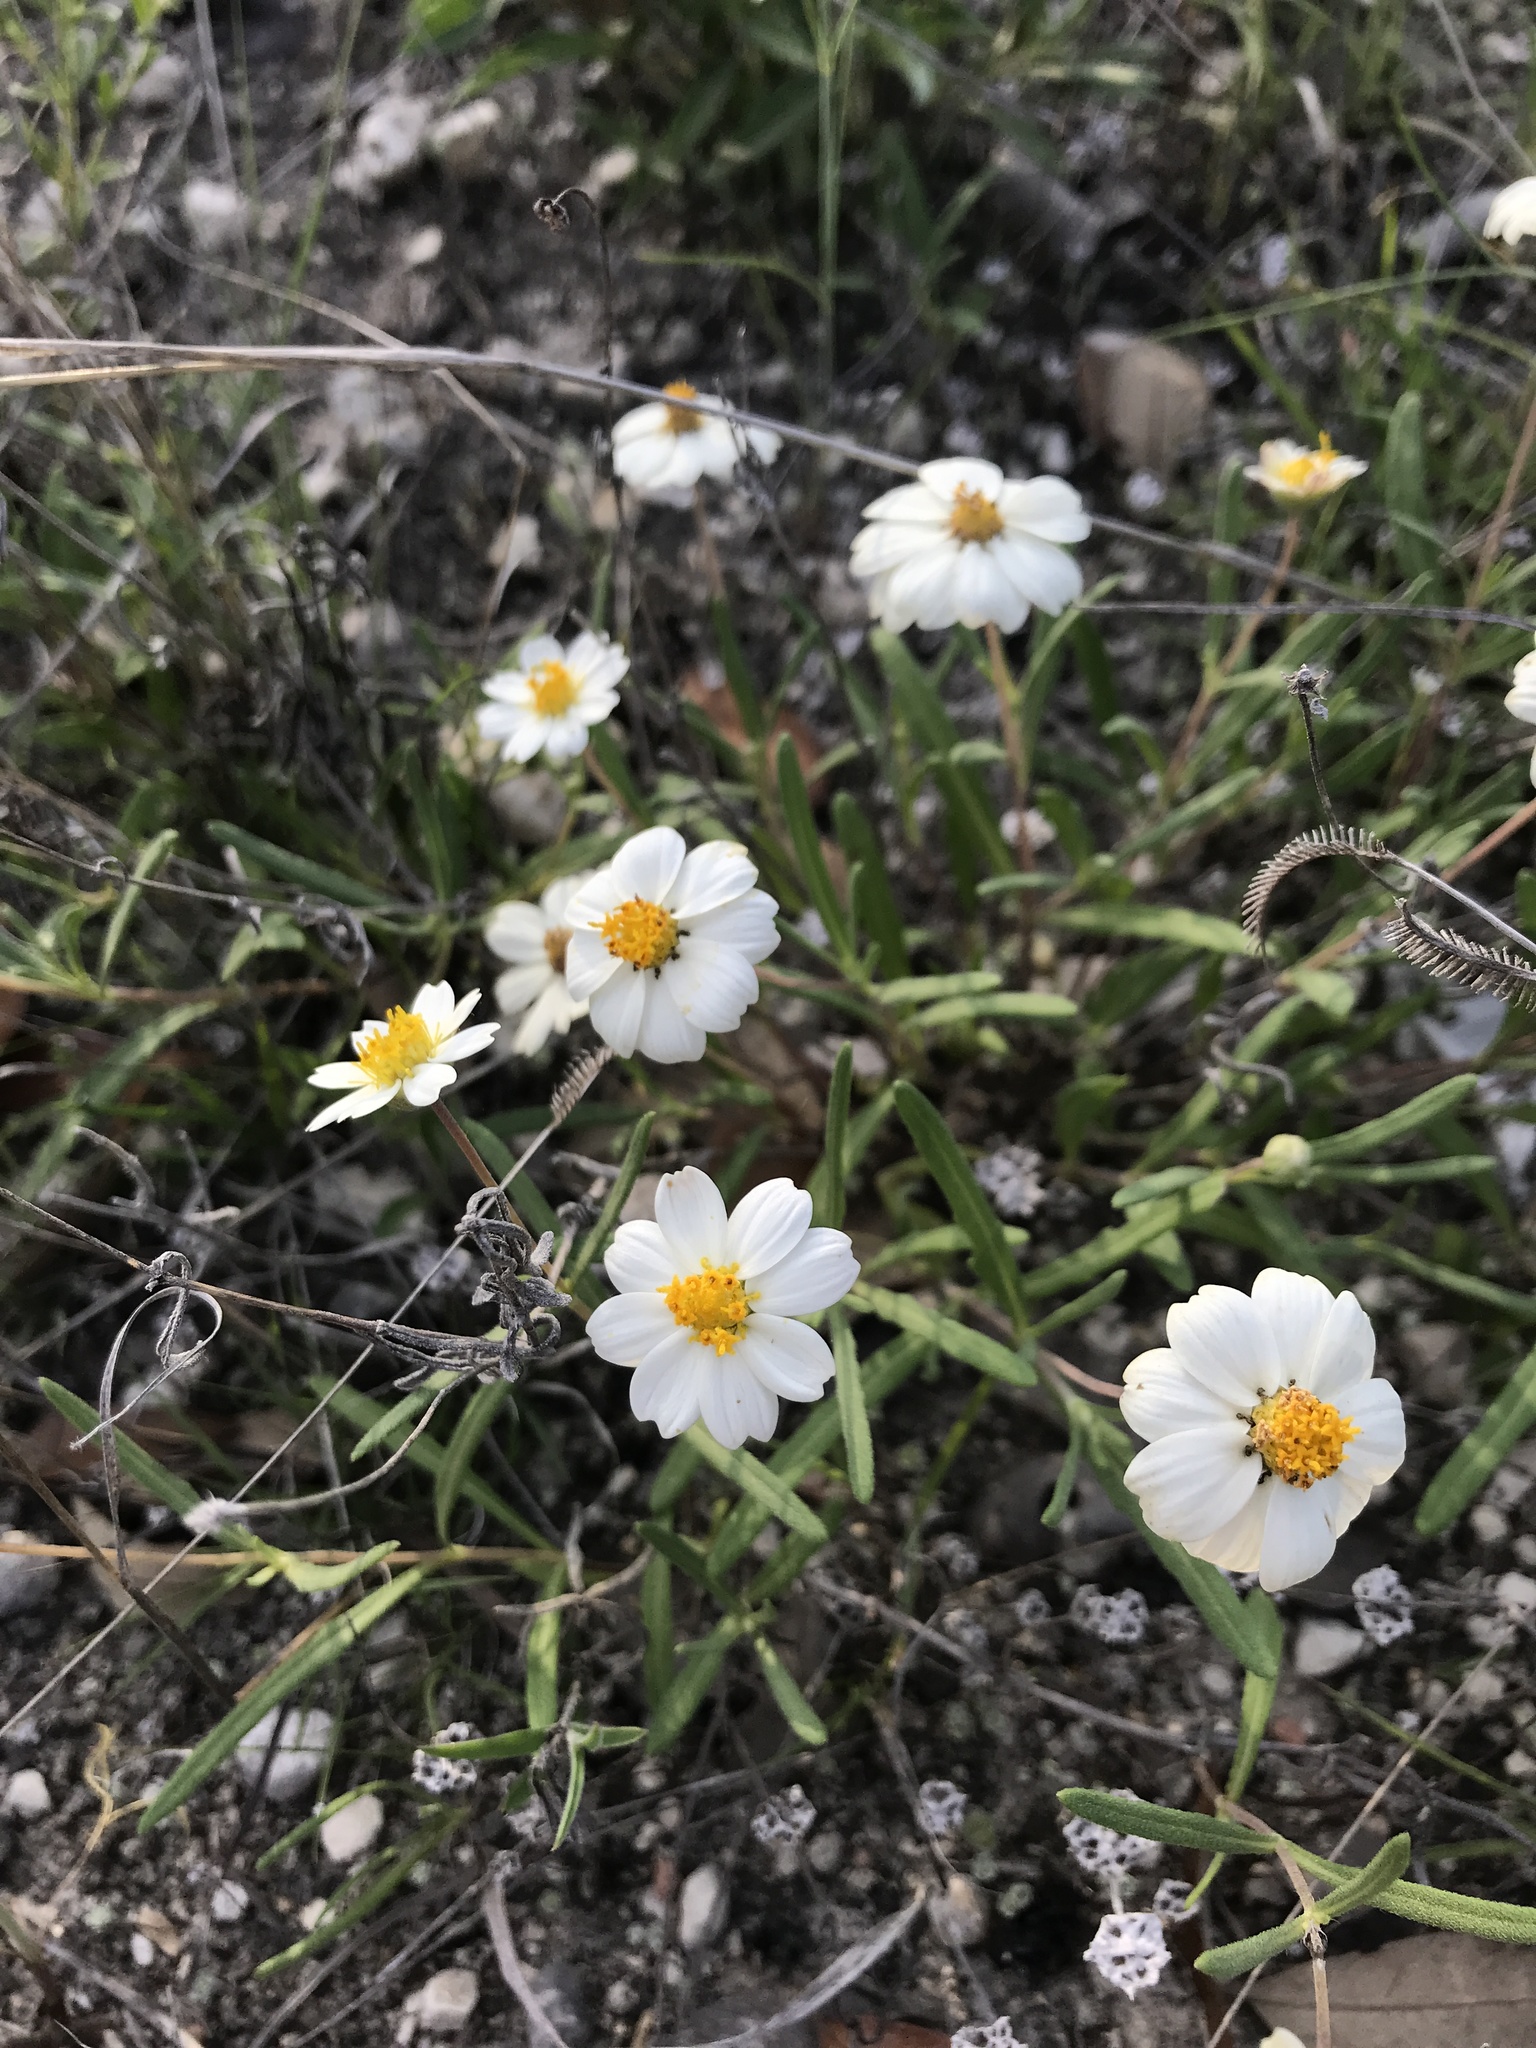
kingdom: Plantae
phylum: Tracheophyta
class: Magnoliopsida
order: Asterales
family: Asteraceae
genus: Melampodium
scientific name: Melampodium leucanthum
